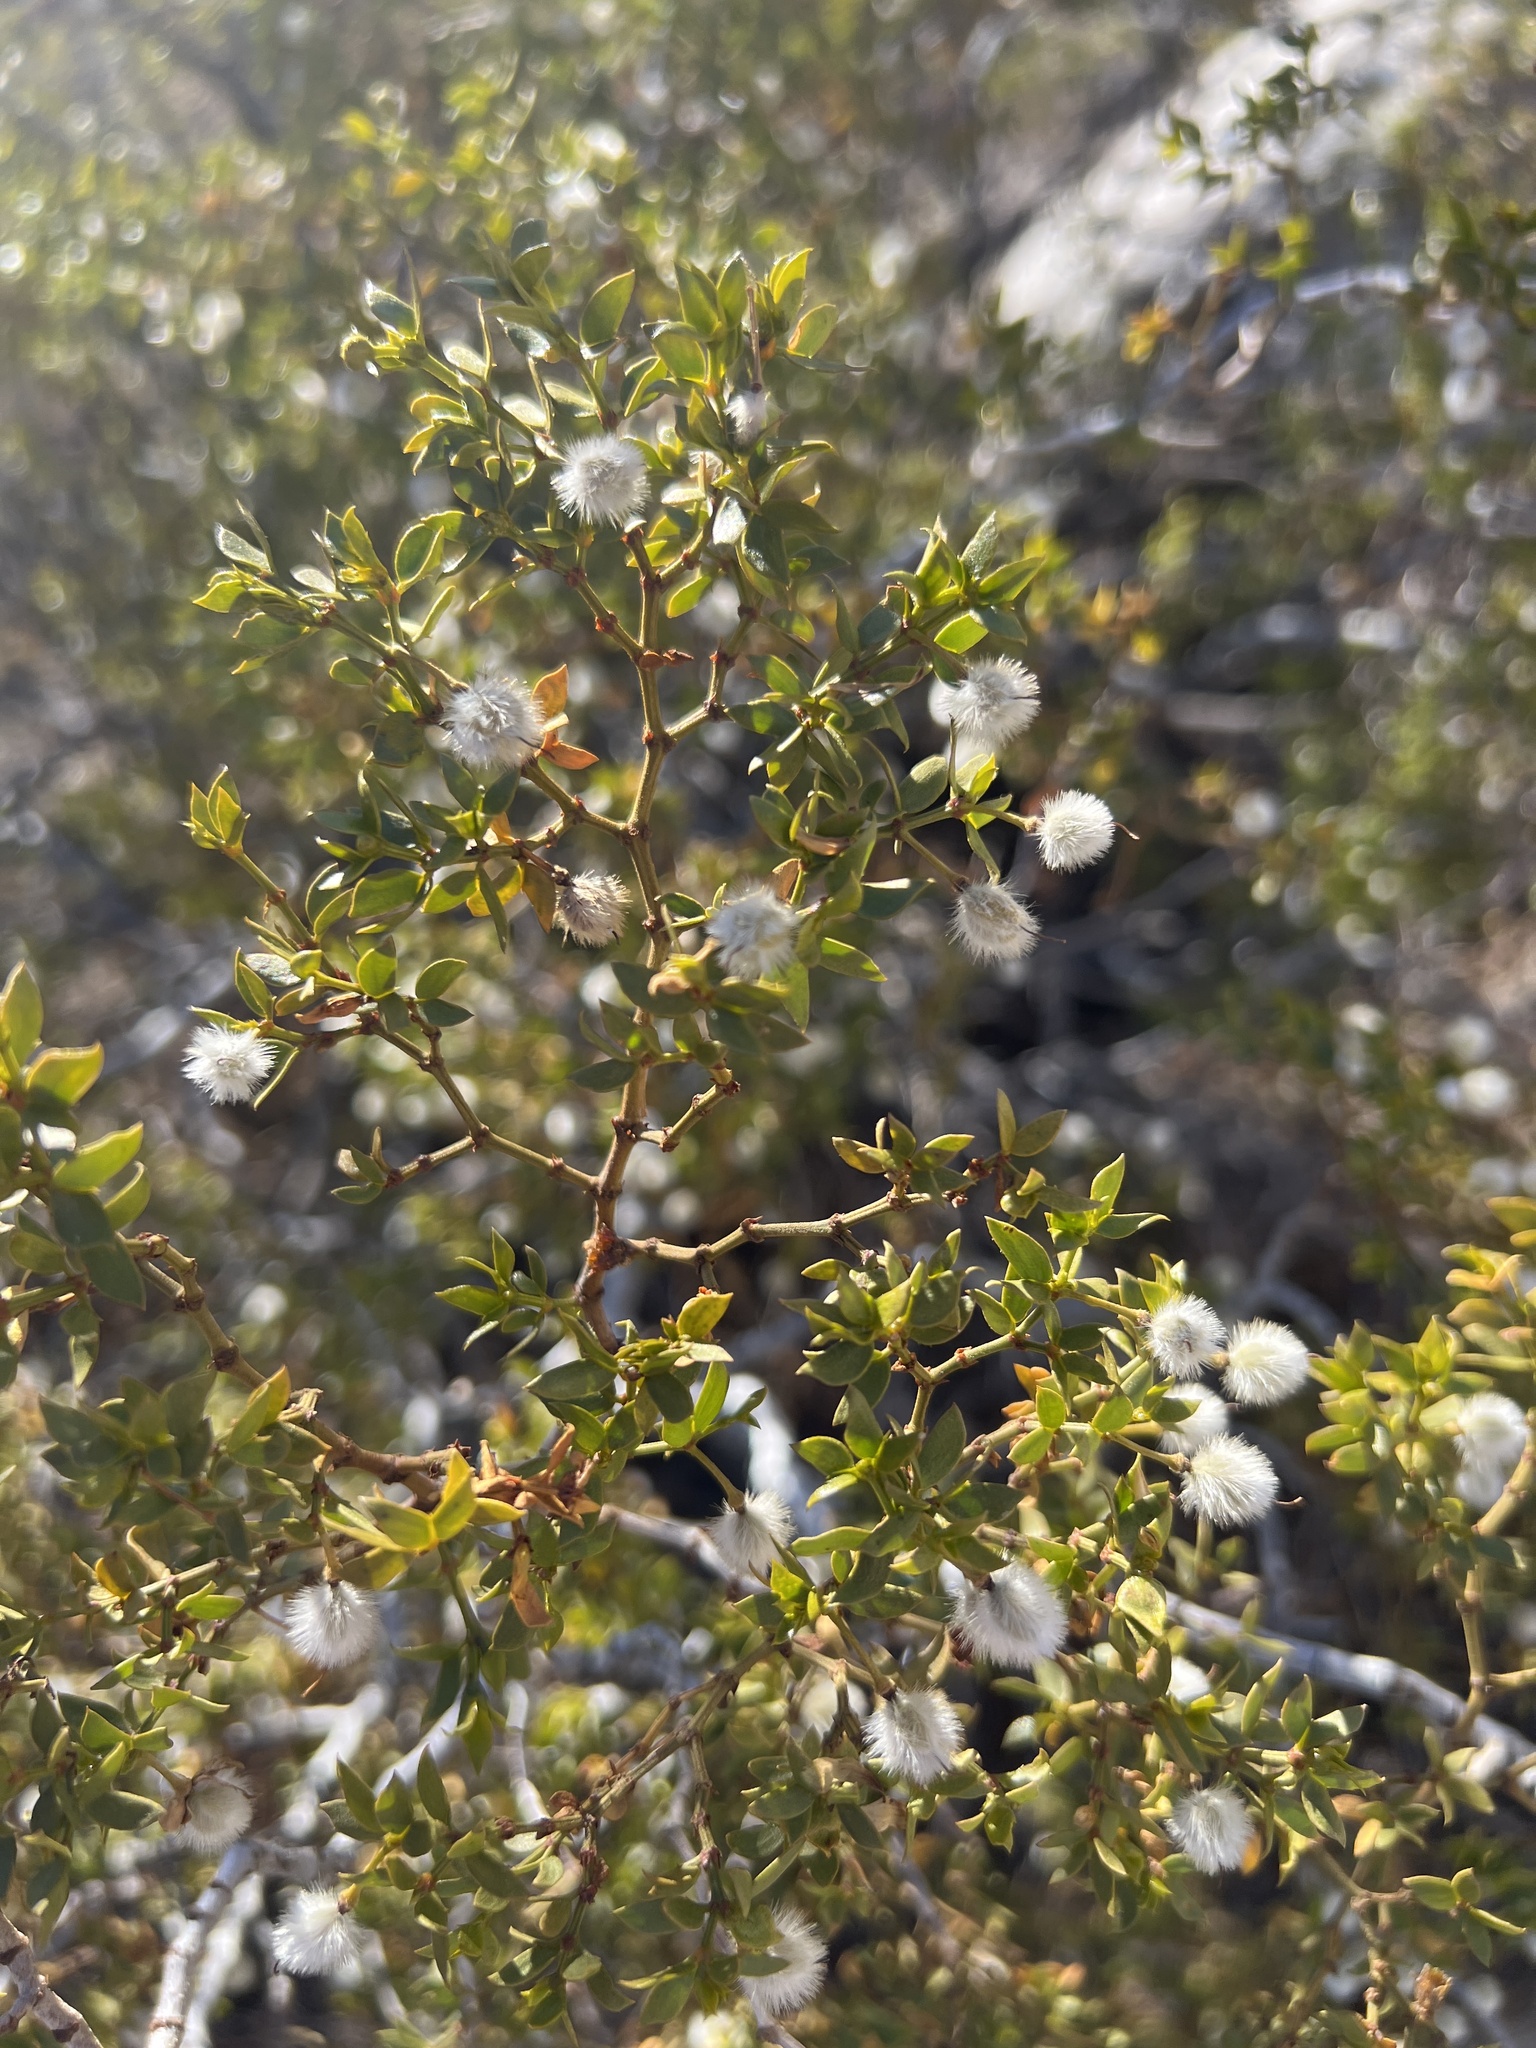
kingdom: Plantae
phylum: Tracheophyta
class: Magnoliopsida
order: Zygophyllales
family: Zygophyllaceae
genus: Larrea
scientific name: Larrea tridentata
